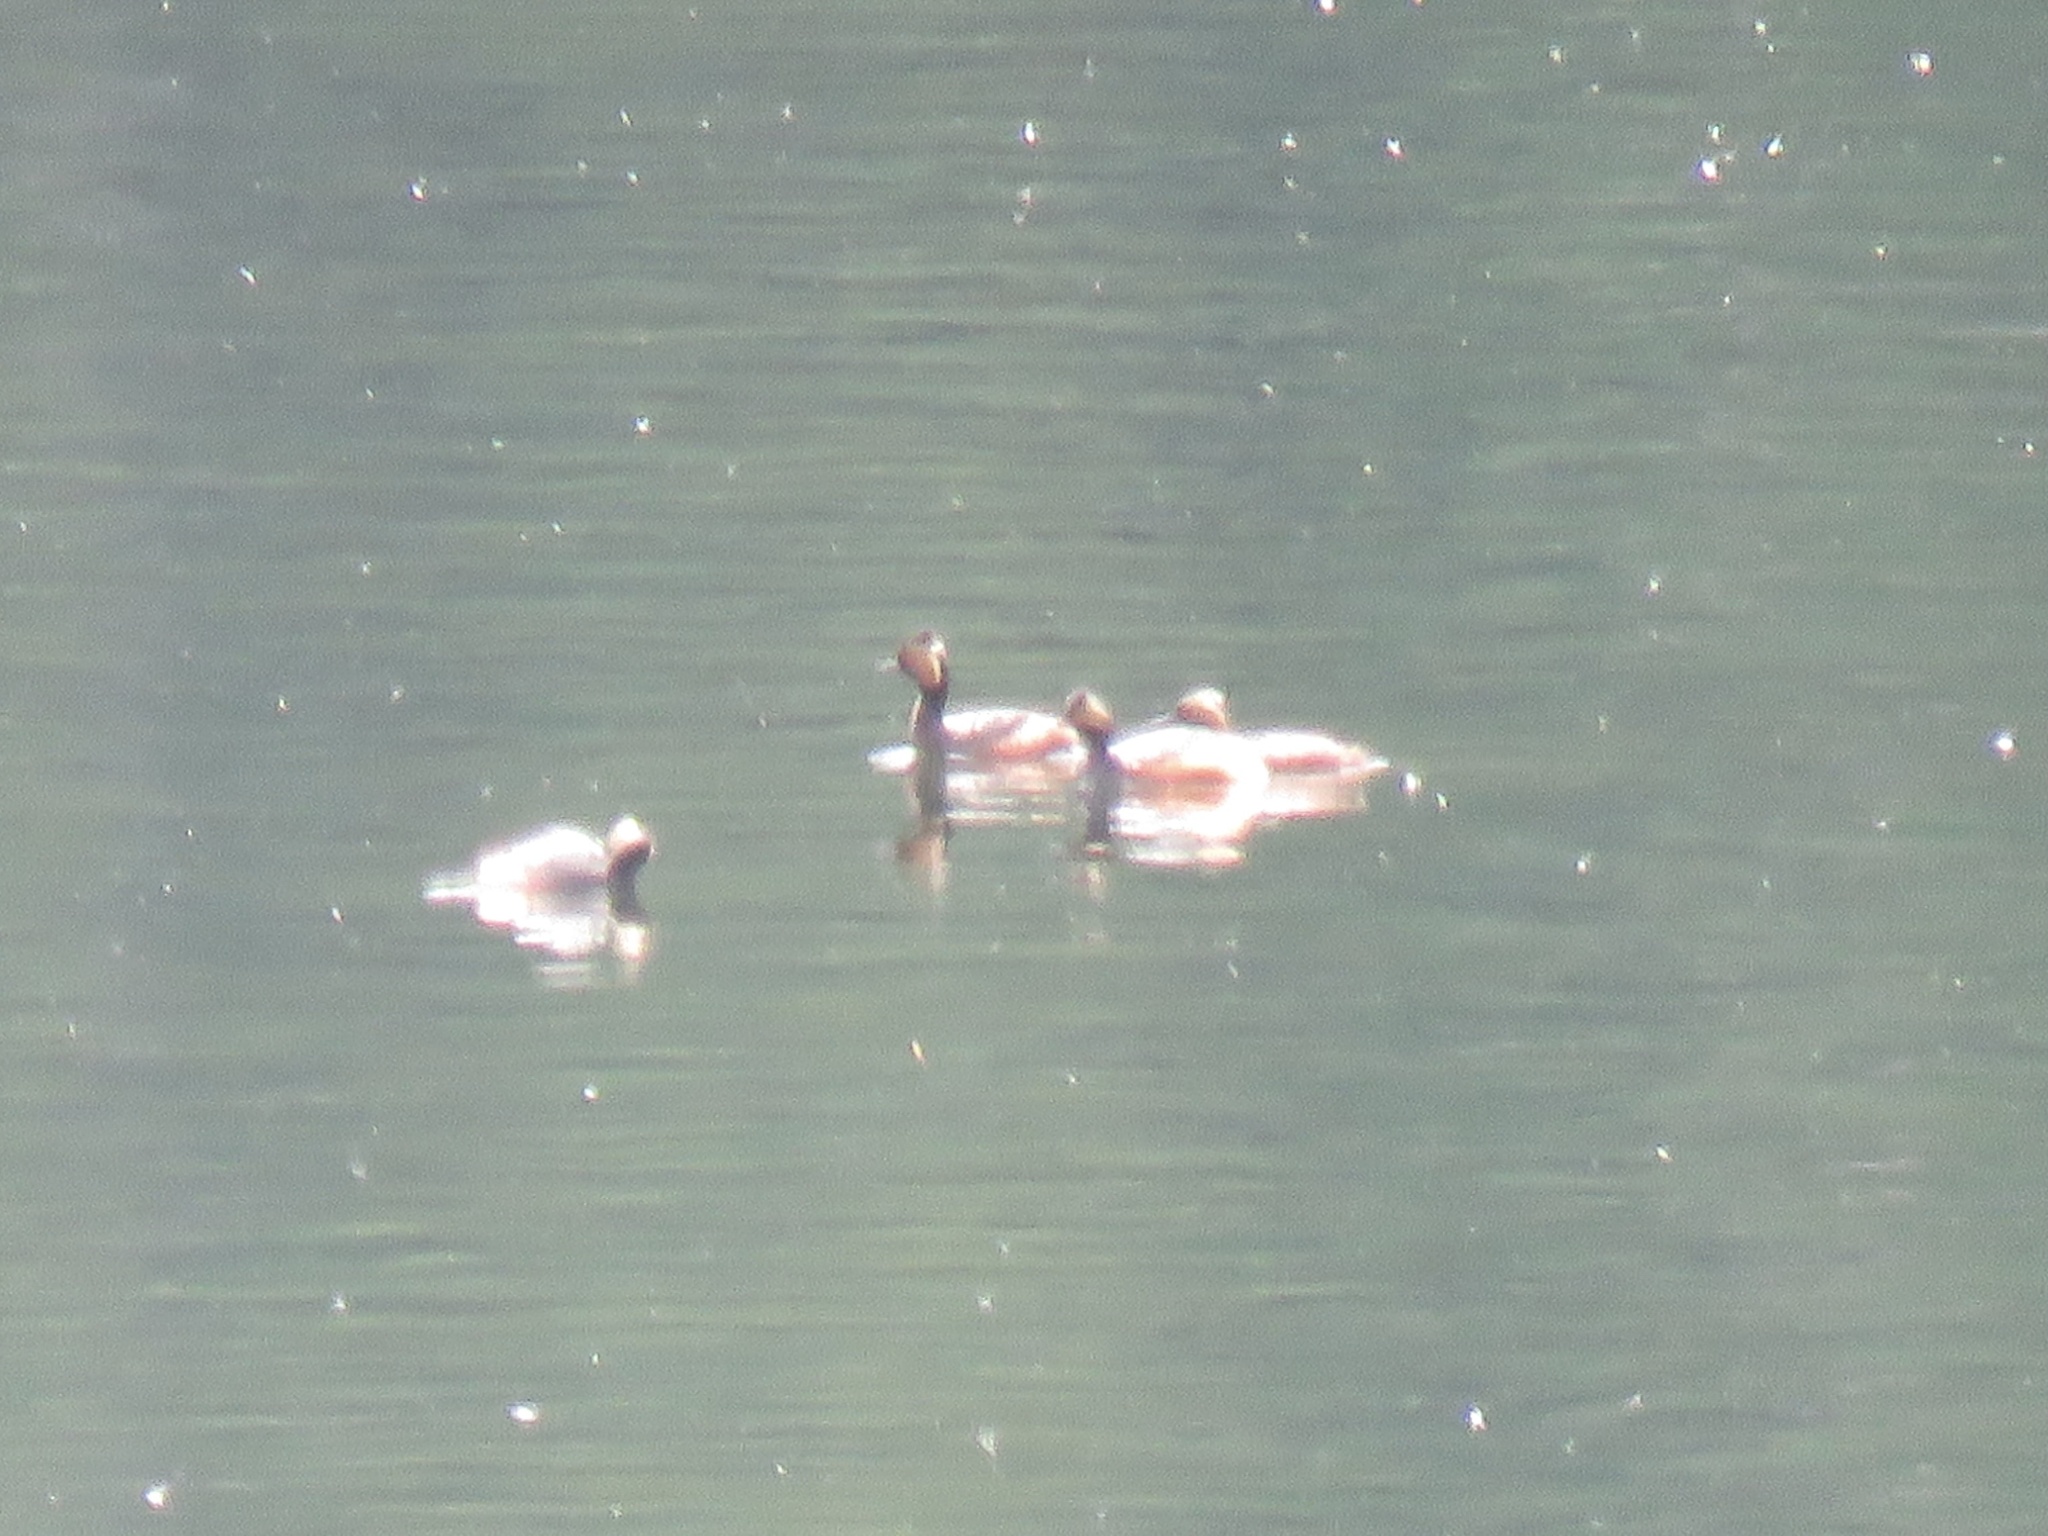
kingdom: Animalia
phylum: Chordata
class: Aves
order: Podicipediformes
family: Podicipedidae
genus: Podiceps
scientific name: Podiceps nigricollis
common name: Black-necked grebe
